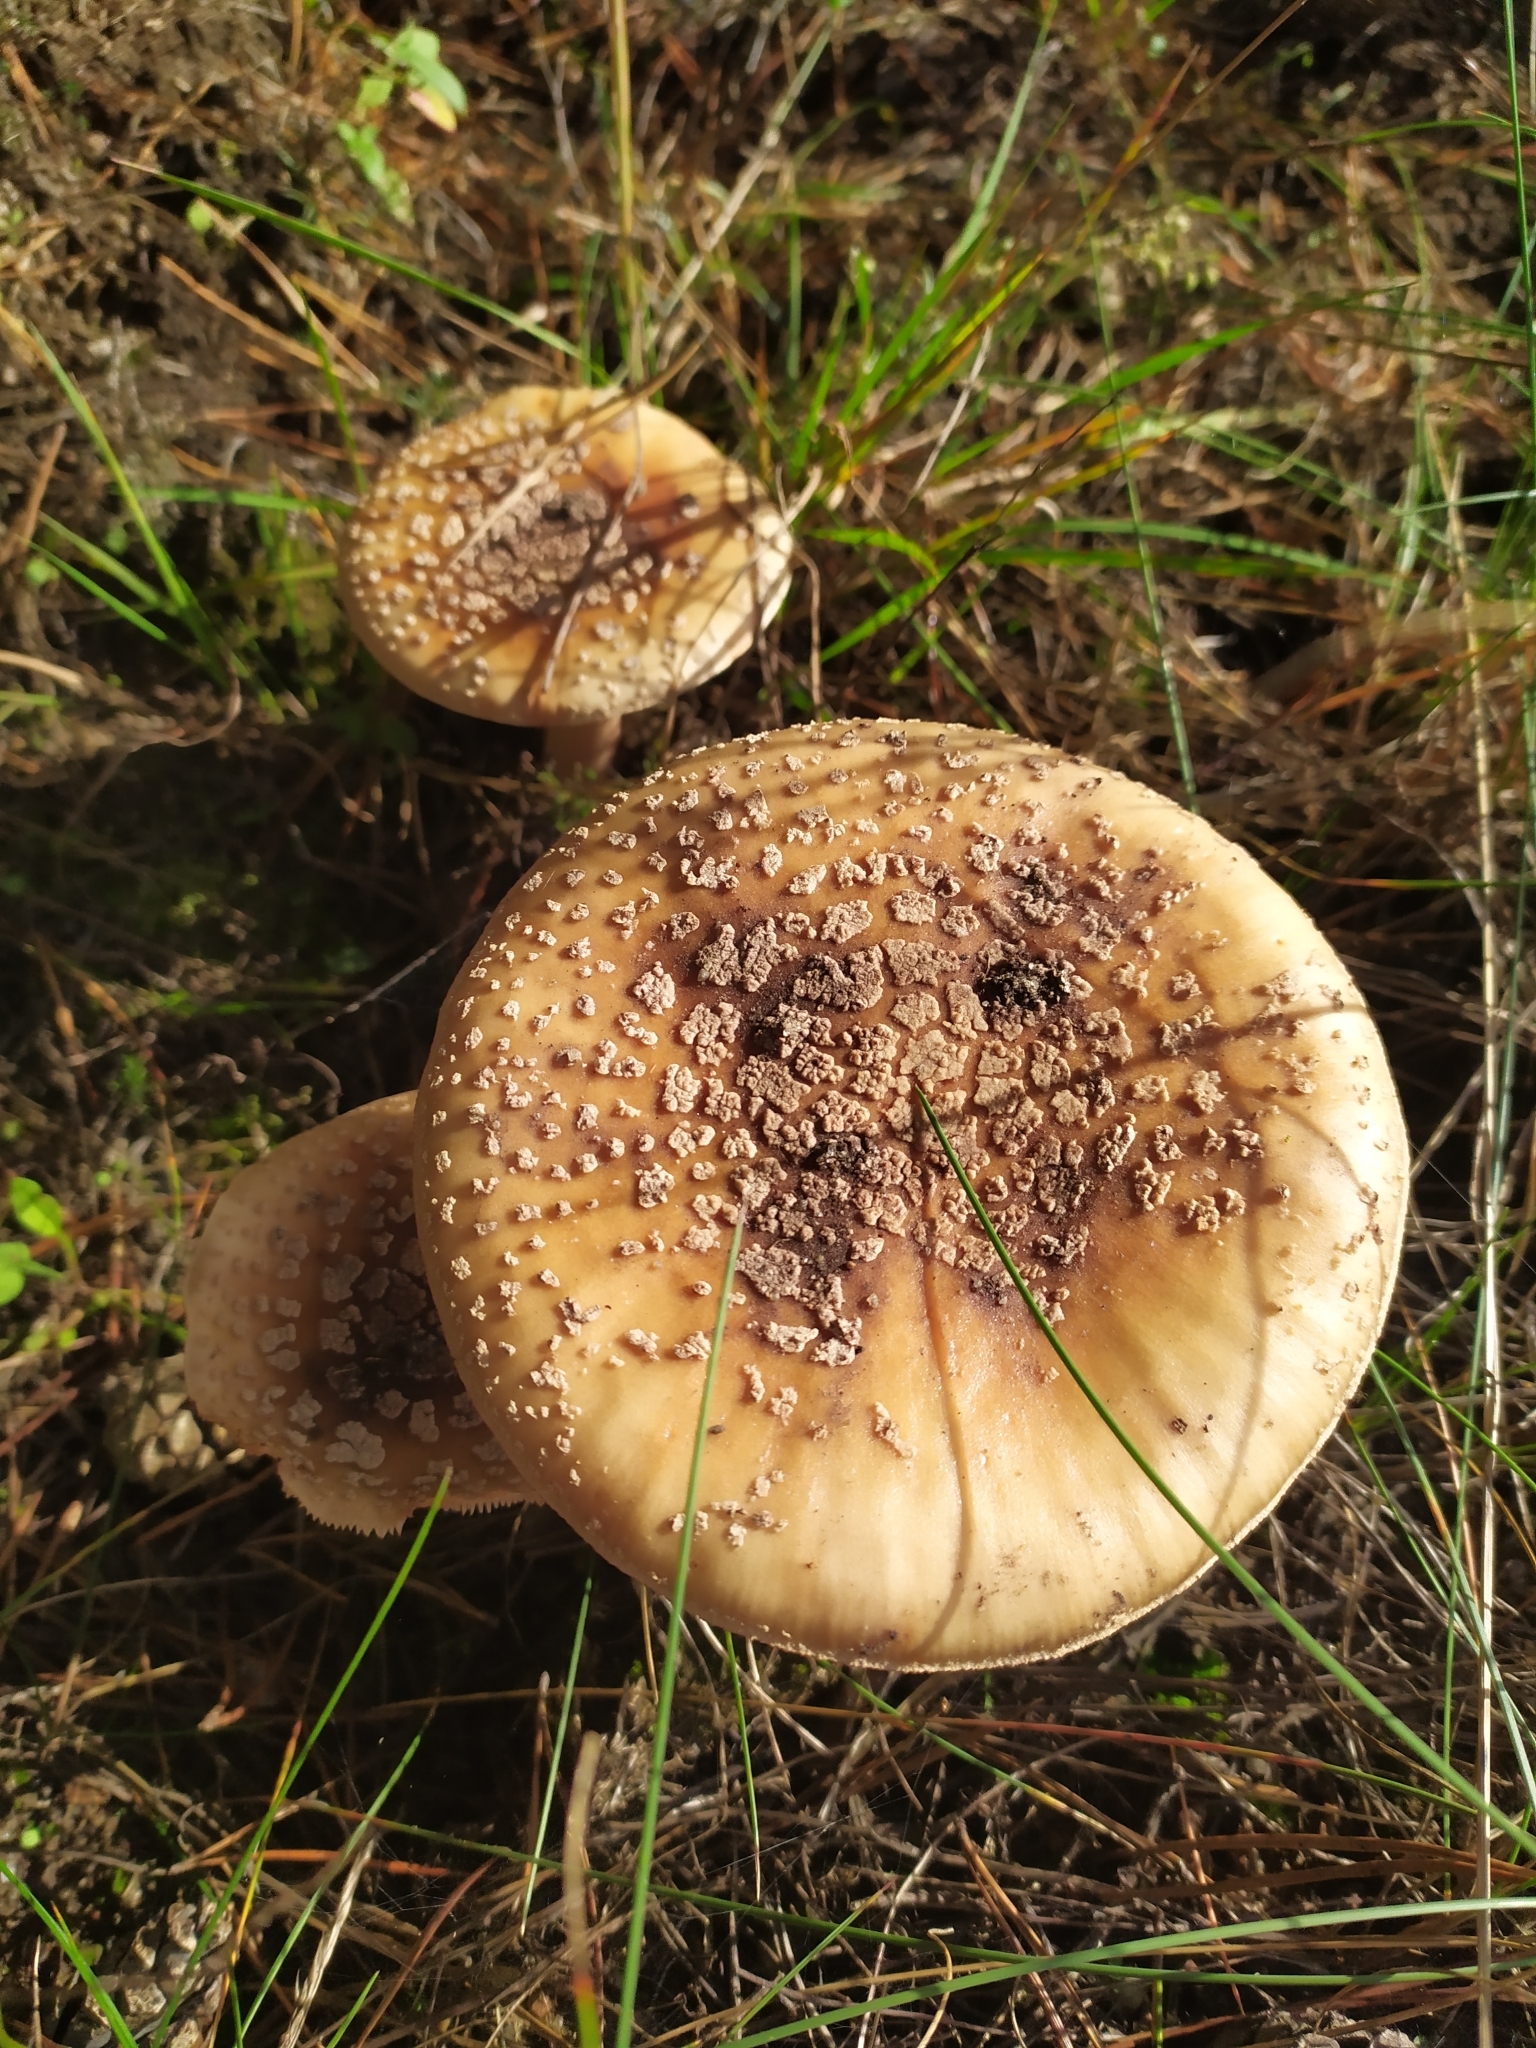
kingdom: Fungi
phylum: Basidiomycota
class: Agaricomycetes
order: Agaricales
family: Amanitaceae
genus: Amanita
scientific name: Amanita rubescens
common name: Blusher
